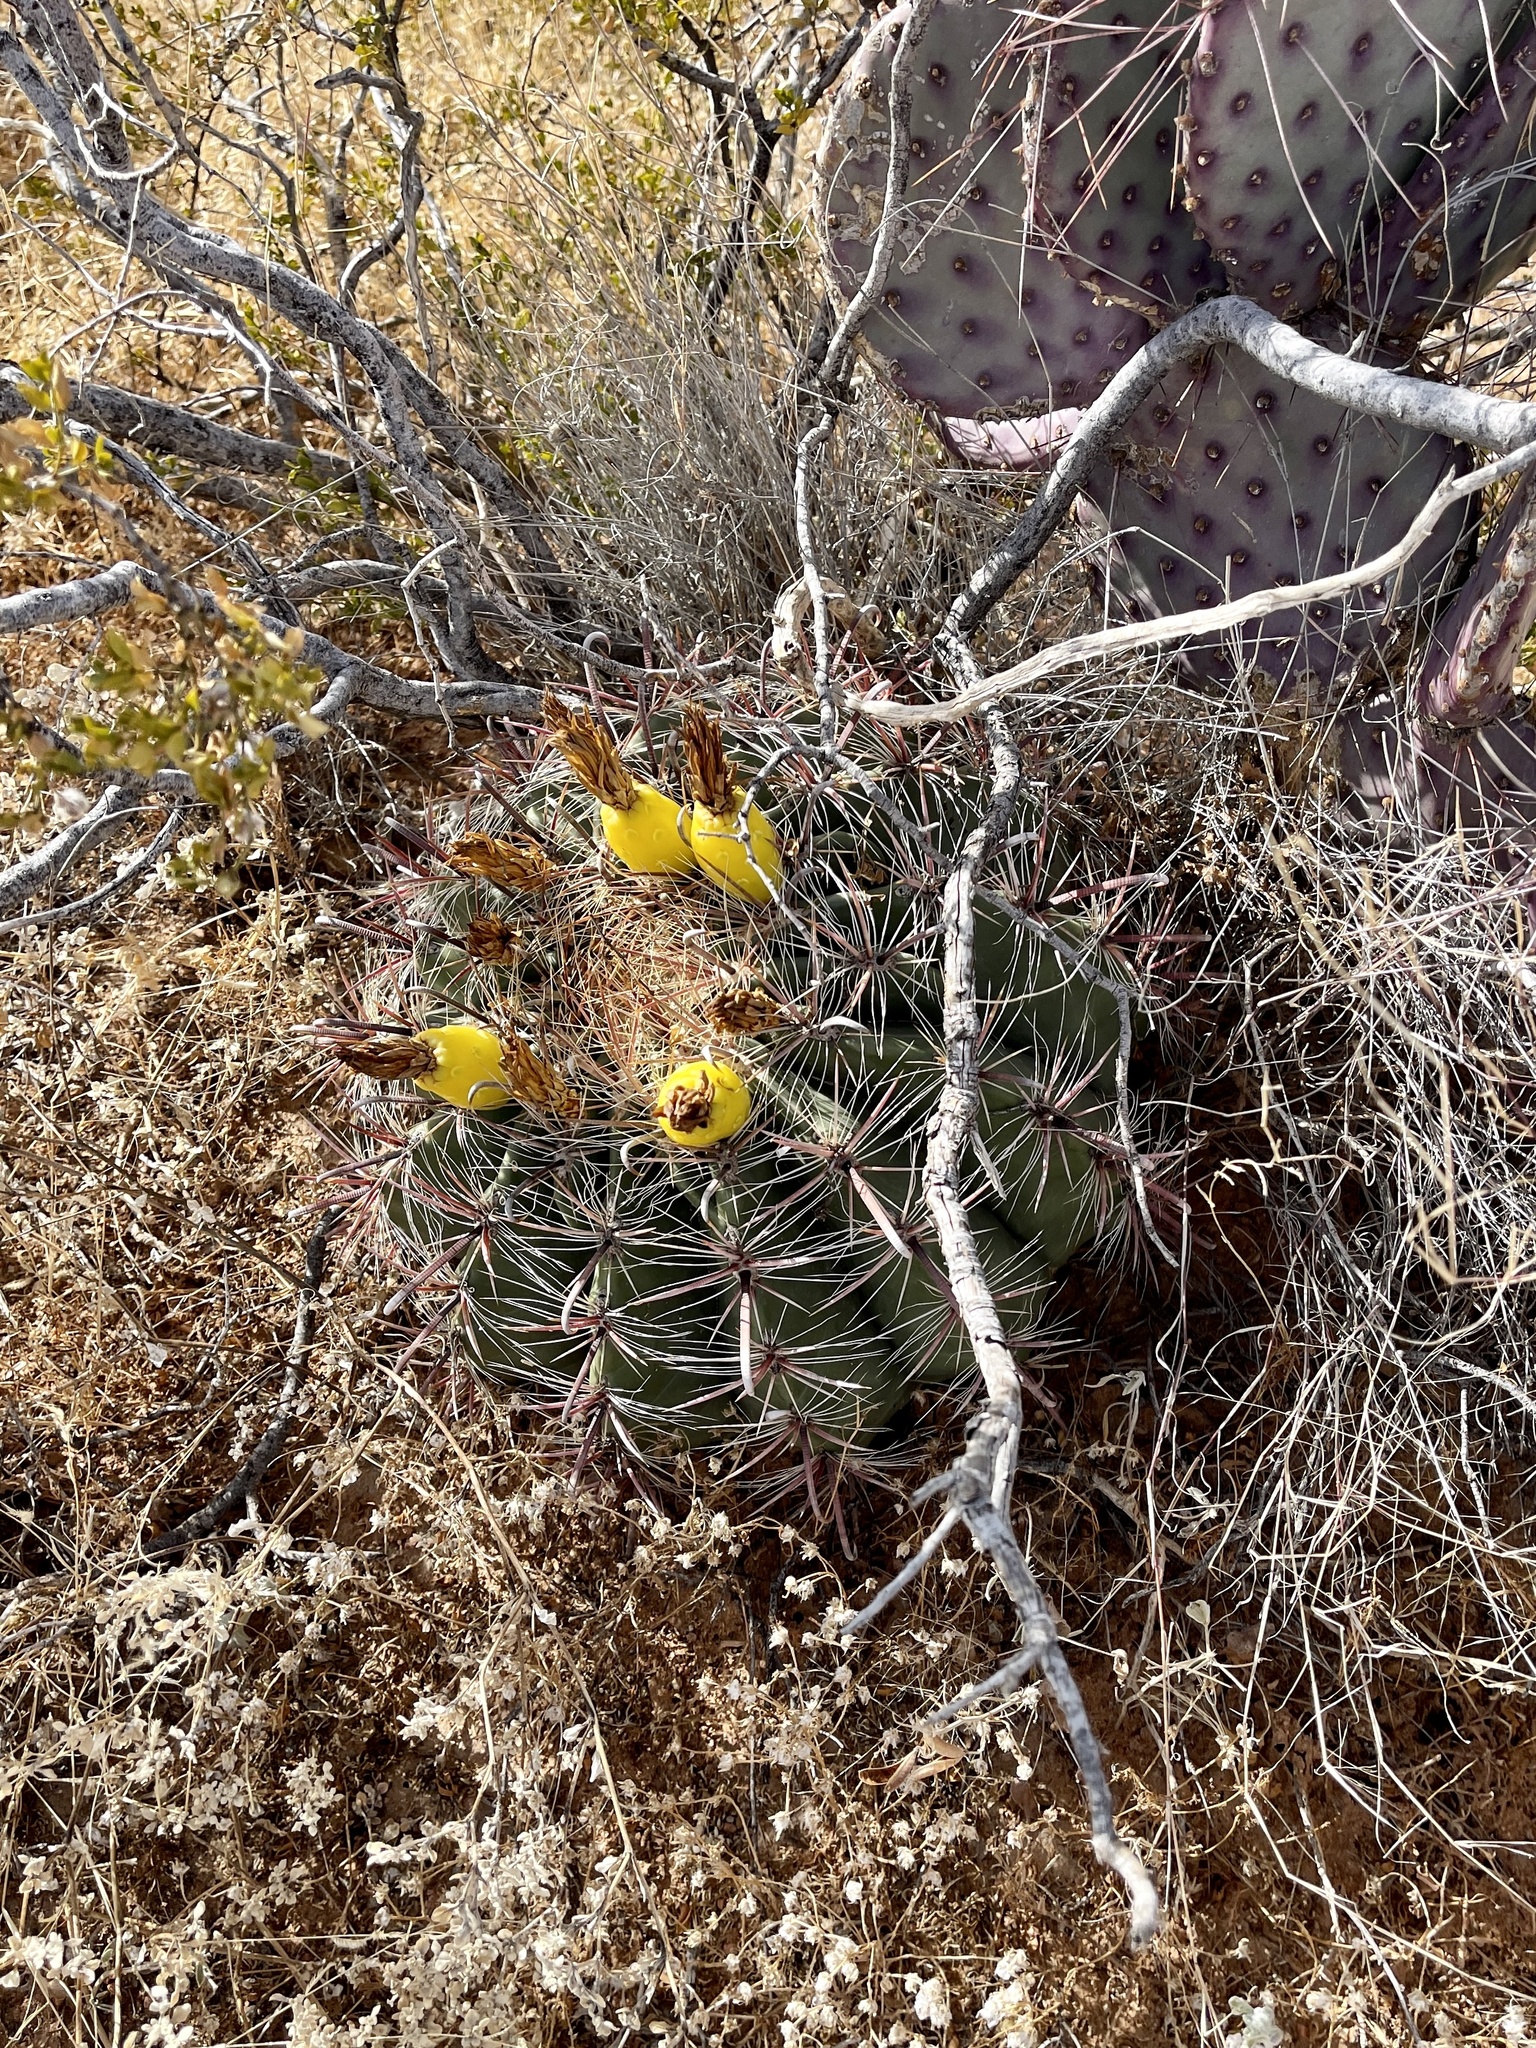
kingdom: Plantae
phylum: Tracheophyta
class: Magnoliopsida
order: Caryophyllales
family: Cactaceae
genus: Ferocactus
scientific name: Ferocactus wislizeni
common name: Candy barrel cactus
